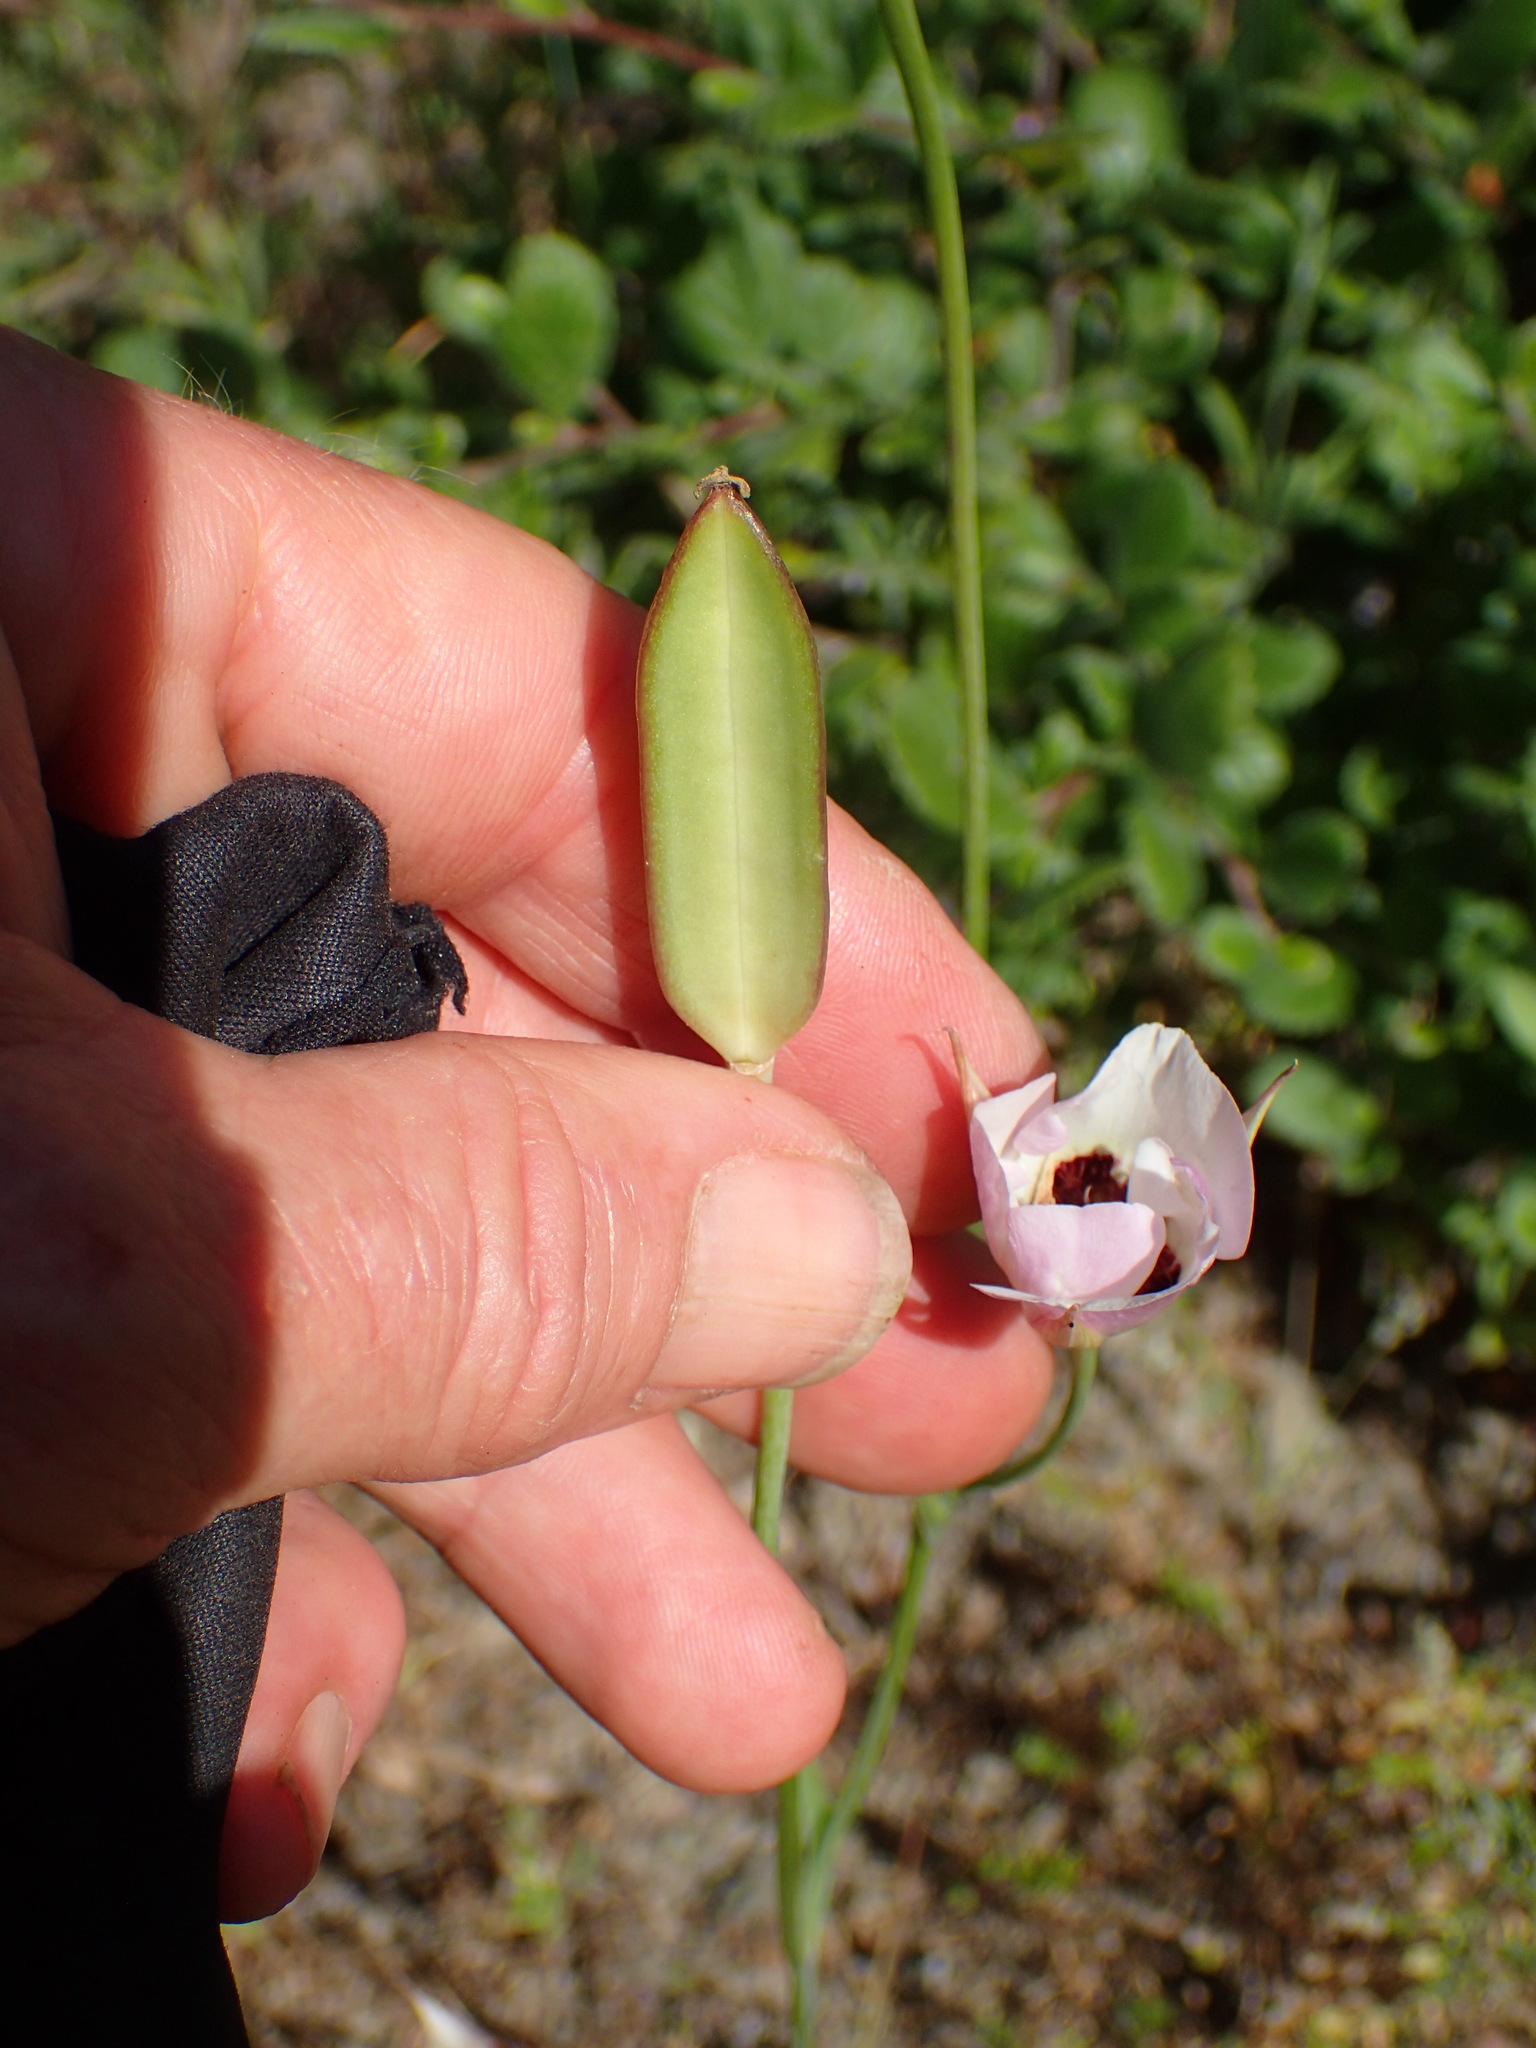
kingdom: Plantae
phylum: Tracheophyta
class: Liliopsida
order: Liliales
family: Liliaceae
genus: Calochortus
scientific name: Calochortus catalinae
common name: Catalina mariposa-lily
